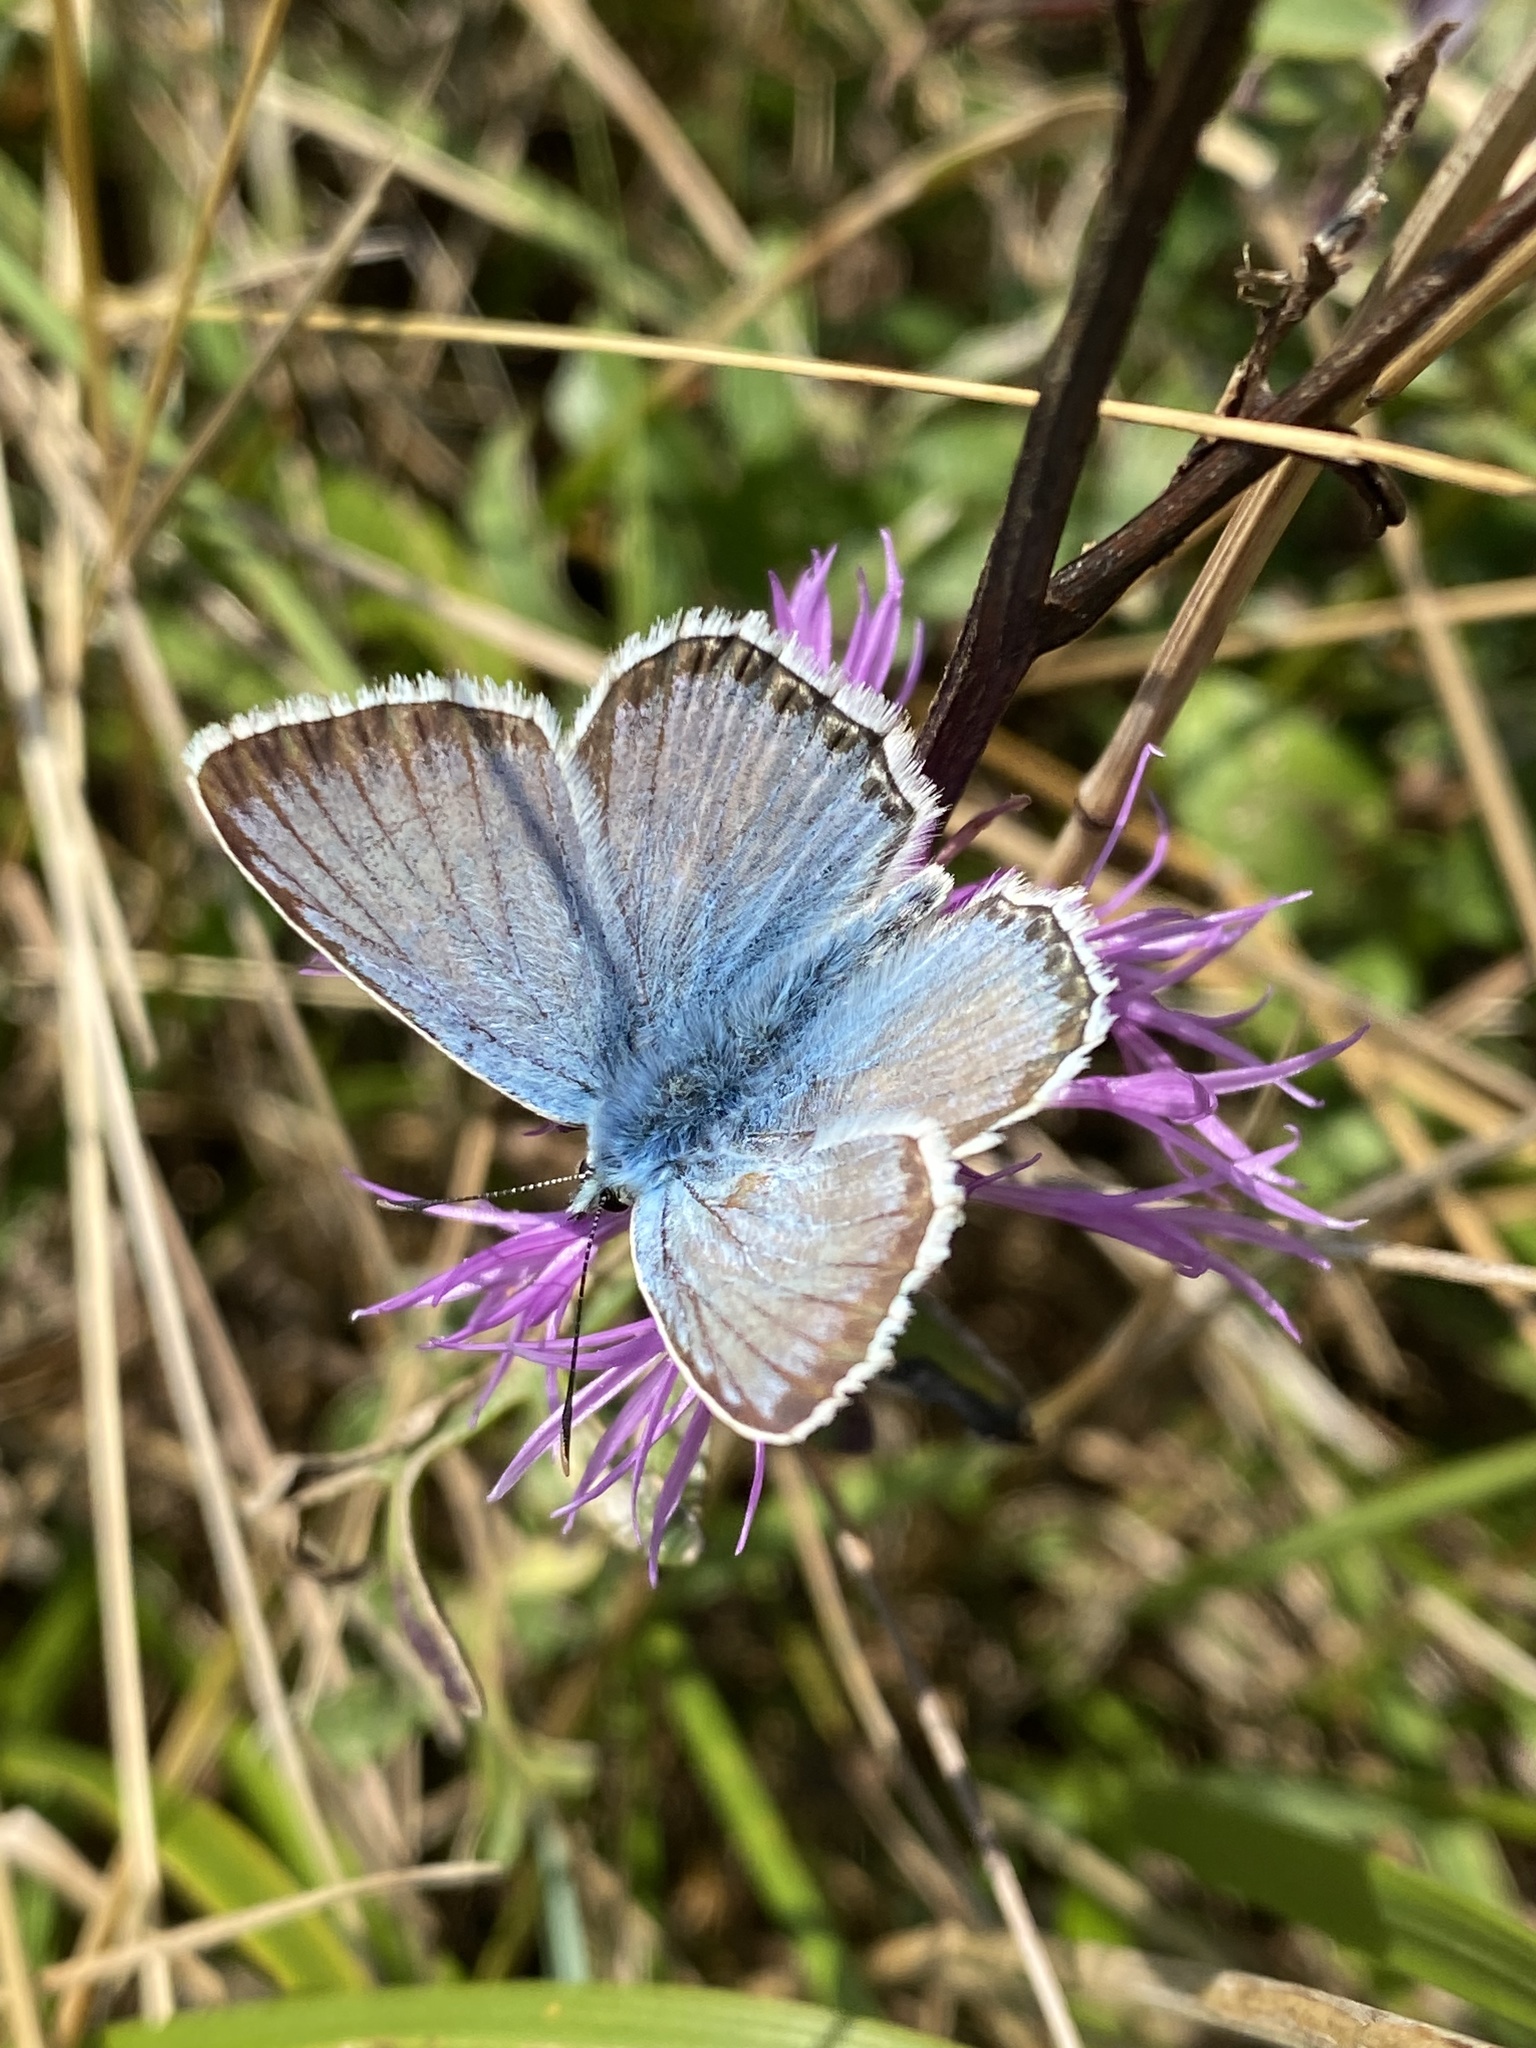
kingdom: Animalia
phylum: Arthropoda
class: Insecta
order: Lepidoptera
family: Lycaenidae
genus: Lysandra
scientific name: Lysandra coridon
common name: Chalkhill blue
